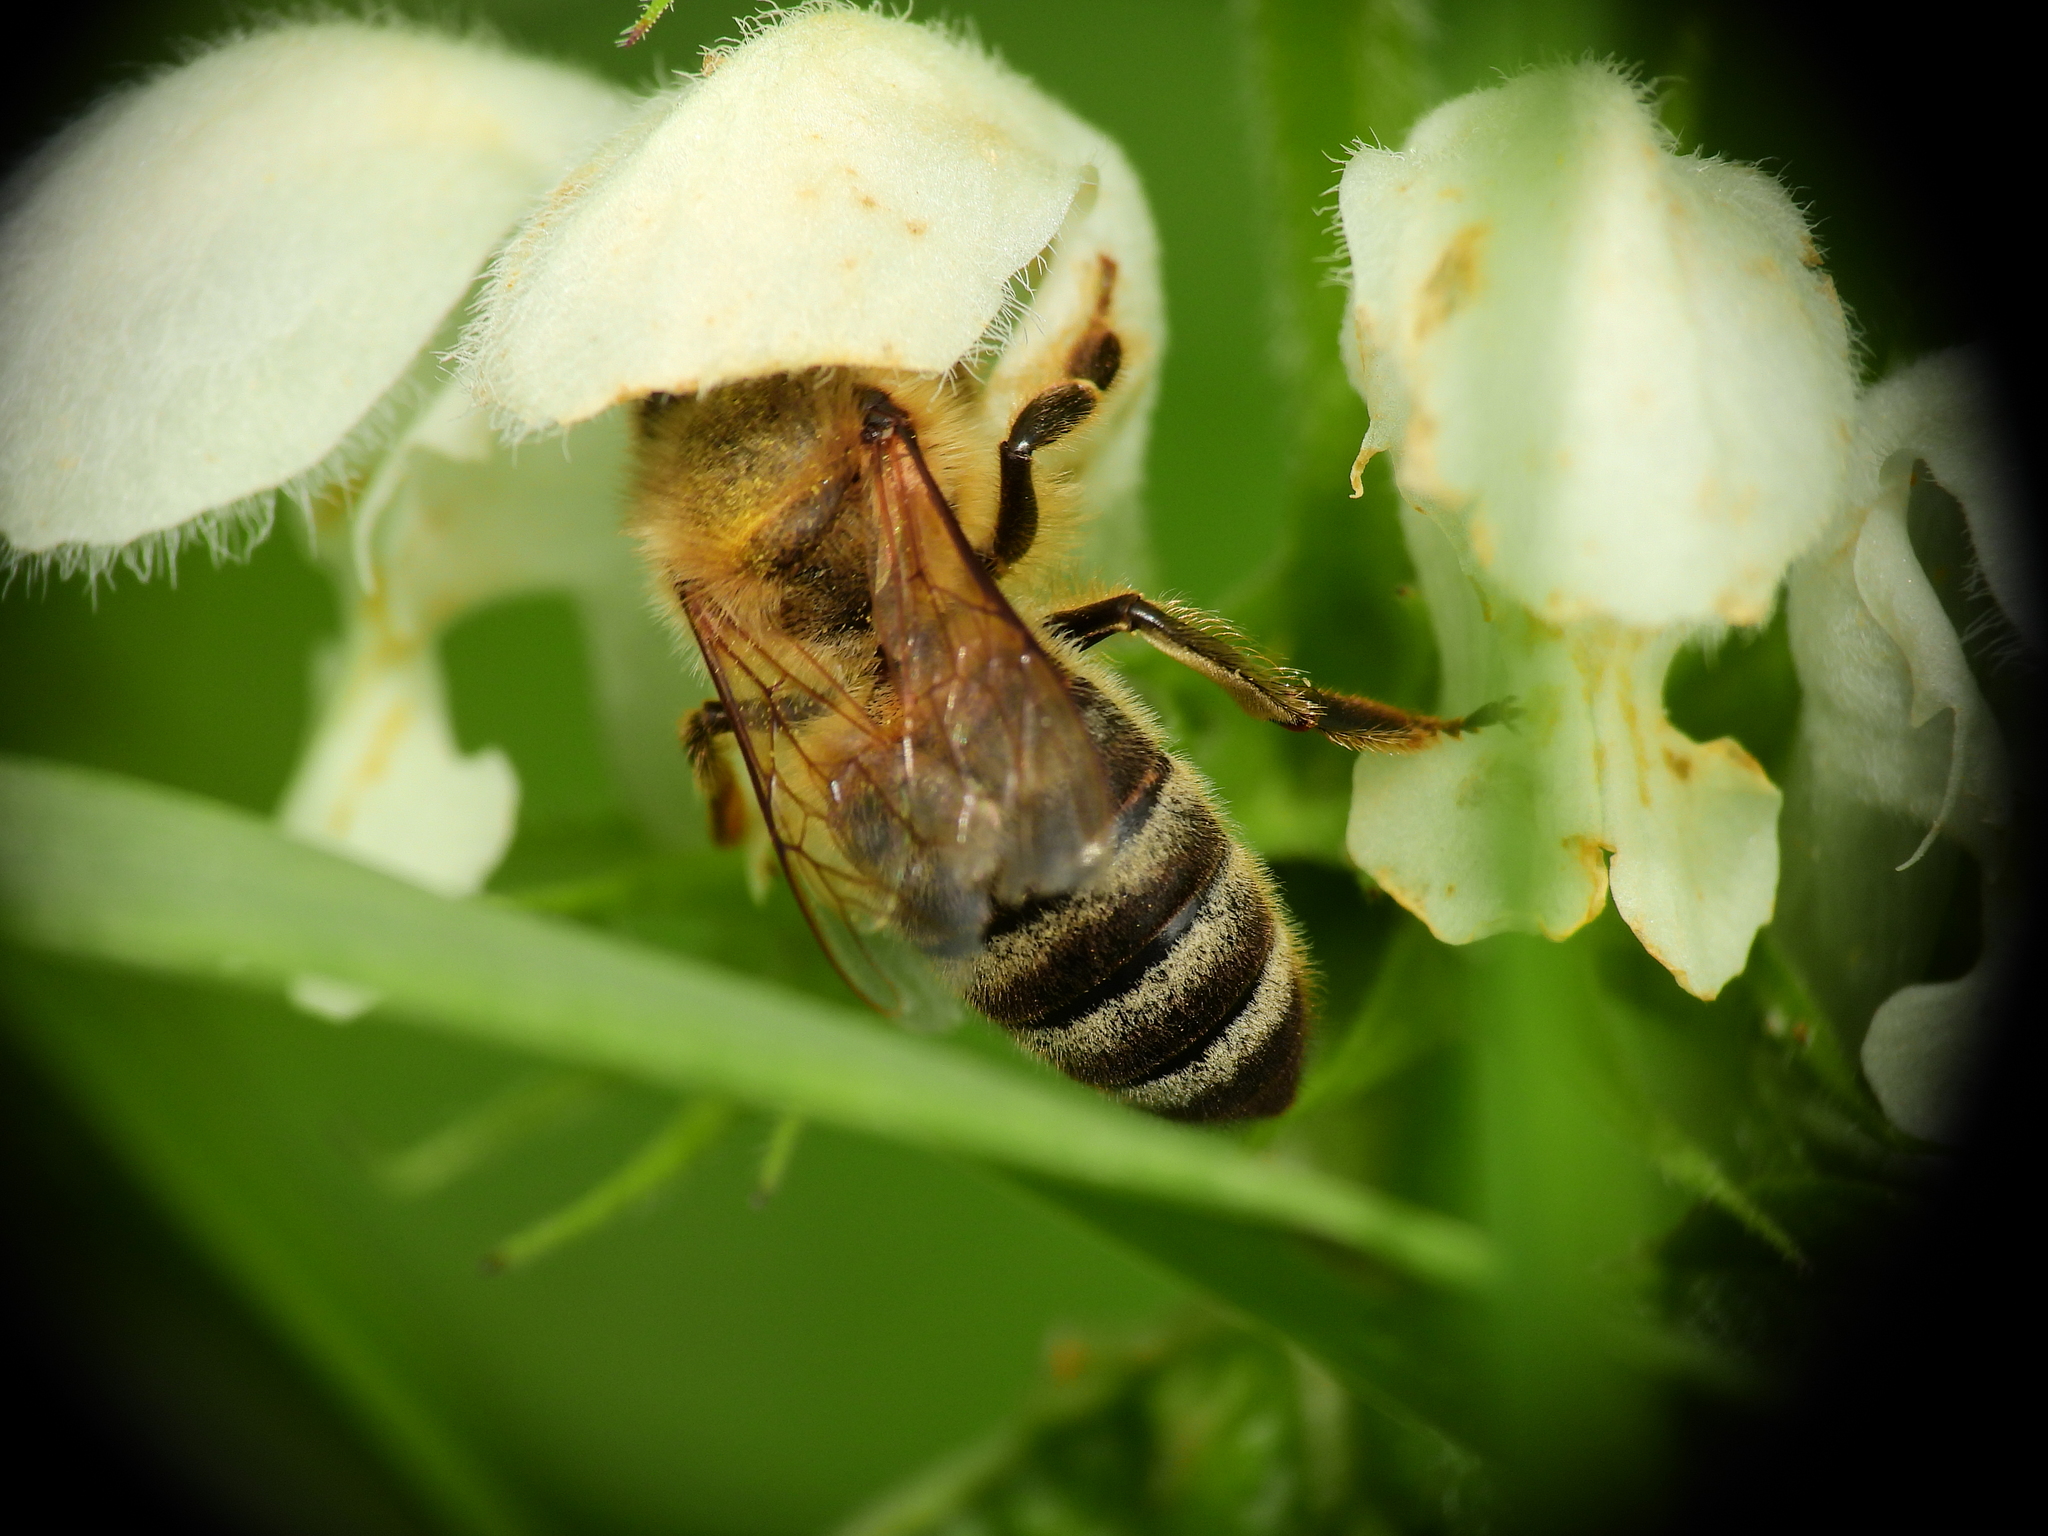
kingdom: Animalia
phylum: Arthropoda
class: Insecta
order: Hymenoptera
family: Apidae
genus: Apis
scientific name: Apis mellifera
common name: Honey bee
